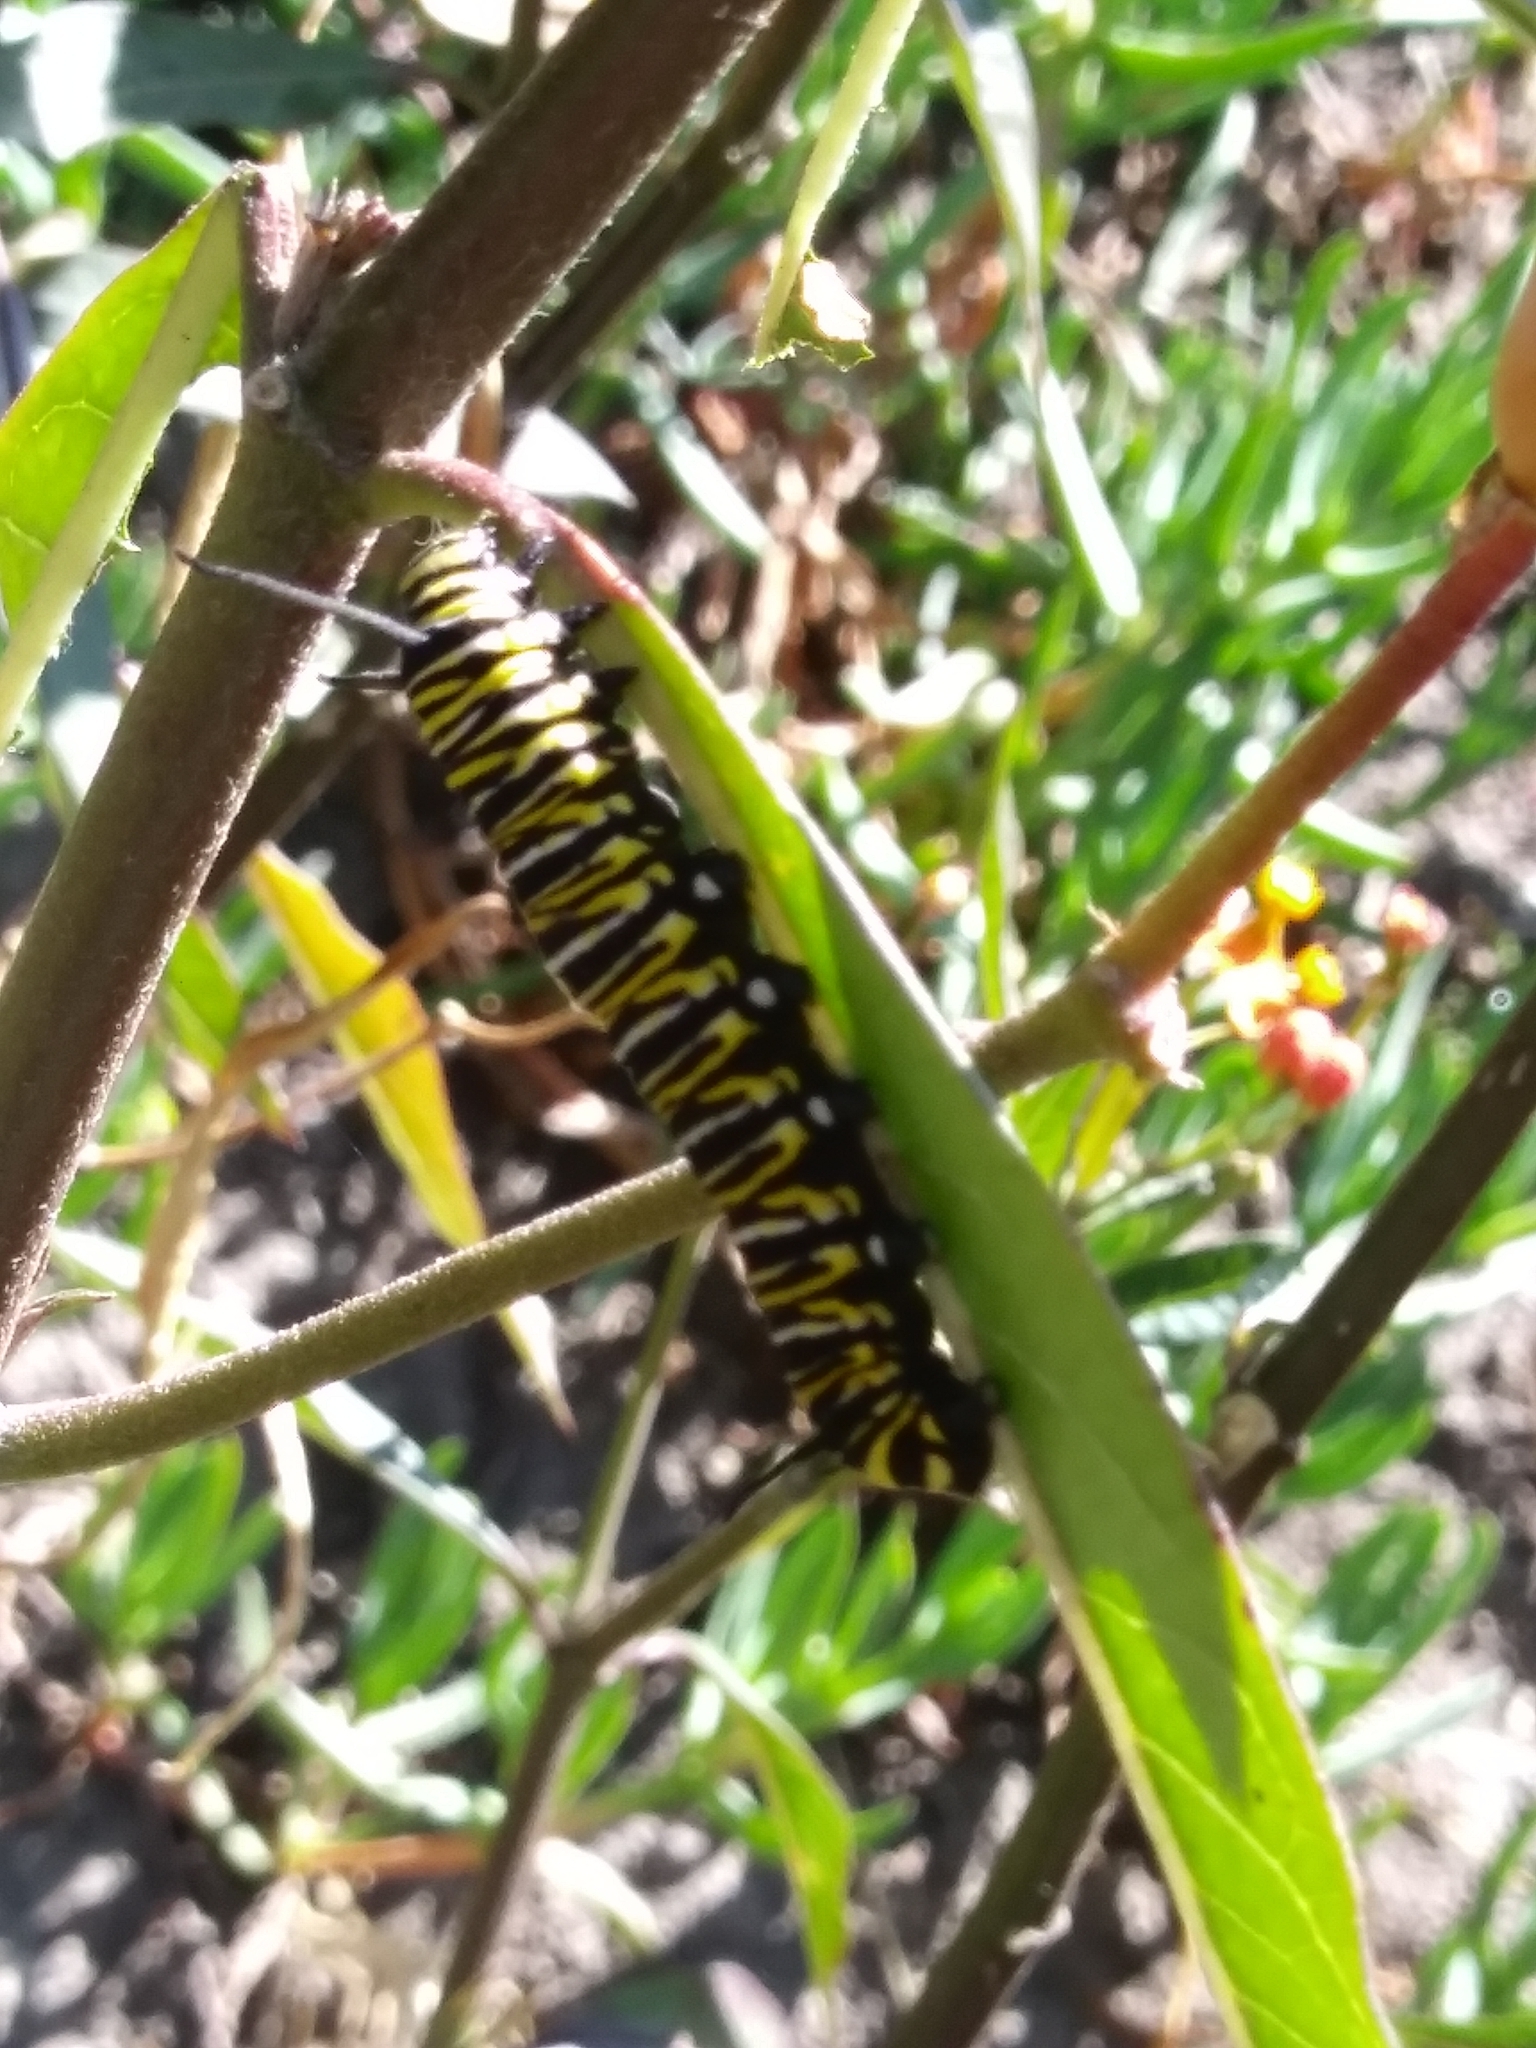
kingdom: Animalia
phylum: Arthropoda
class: Insecta
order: Lepidoptera
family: Nymphalidae
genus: Danaus
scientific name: Danaus plexippus
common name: Monarch
